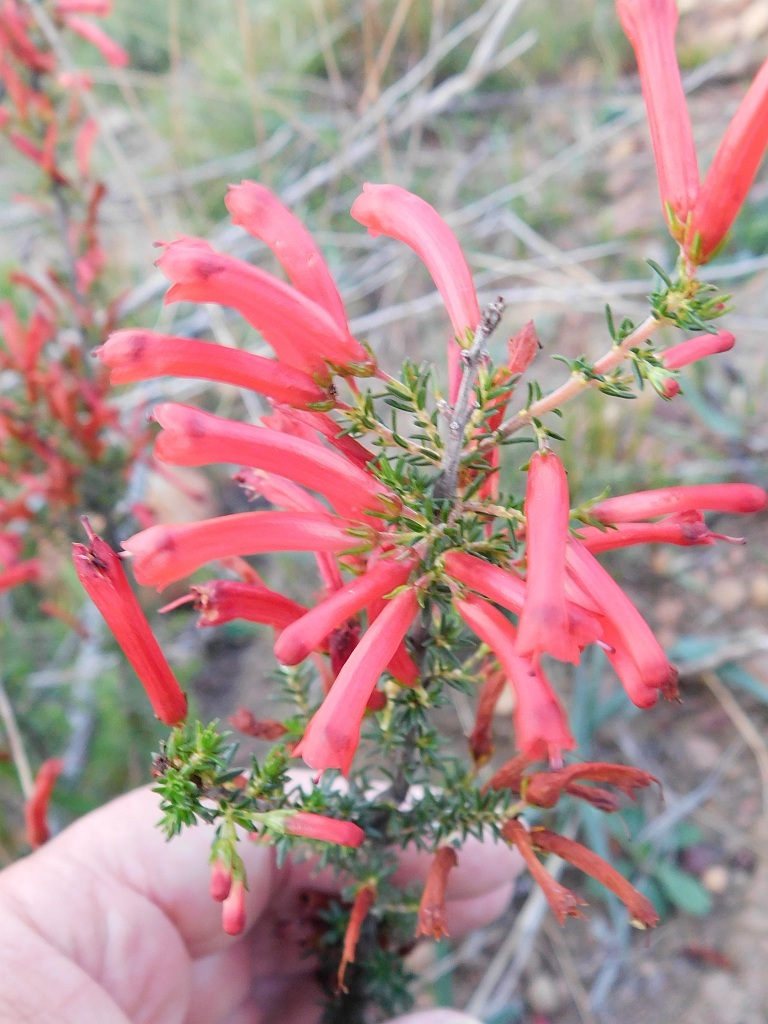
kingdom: Plantae
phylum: Tracheophyta
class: Magnoliopsida
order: Ericales
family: Ericaceae
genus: Erica
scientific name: Erica cruenta
